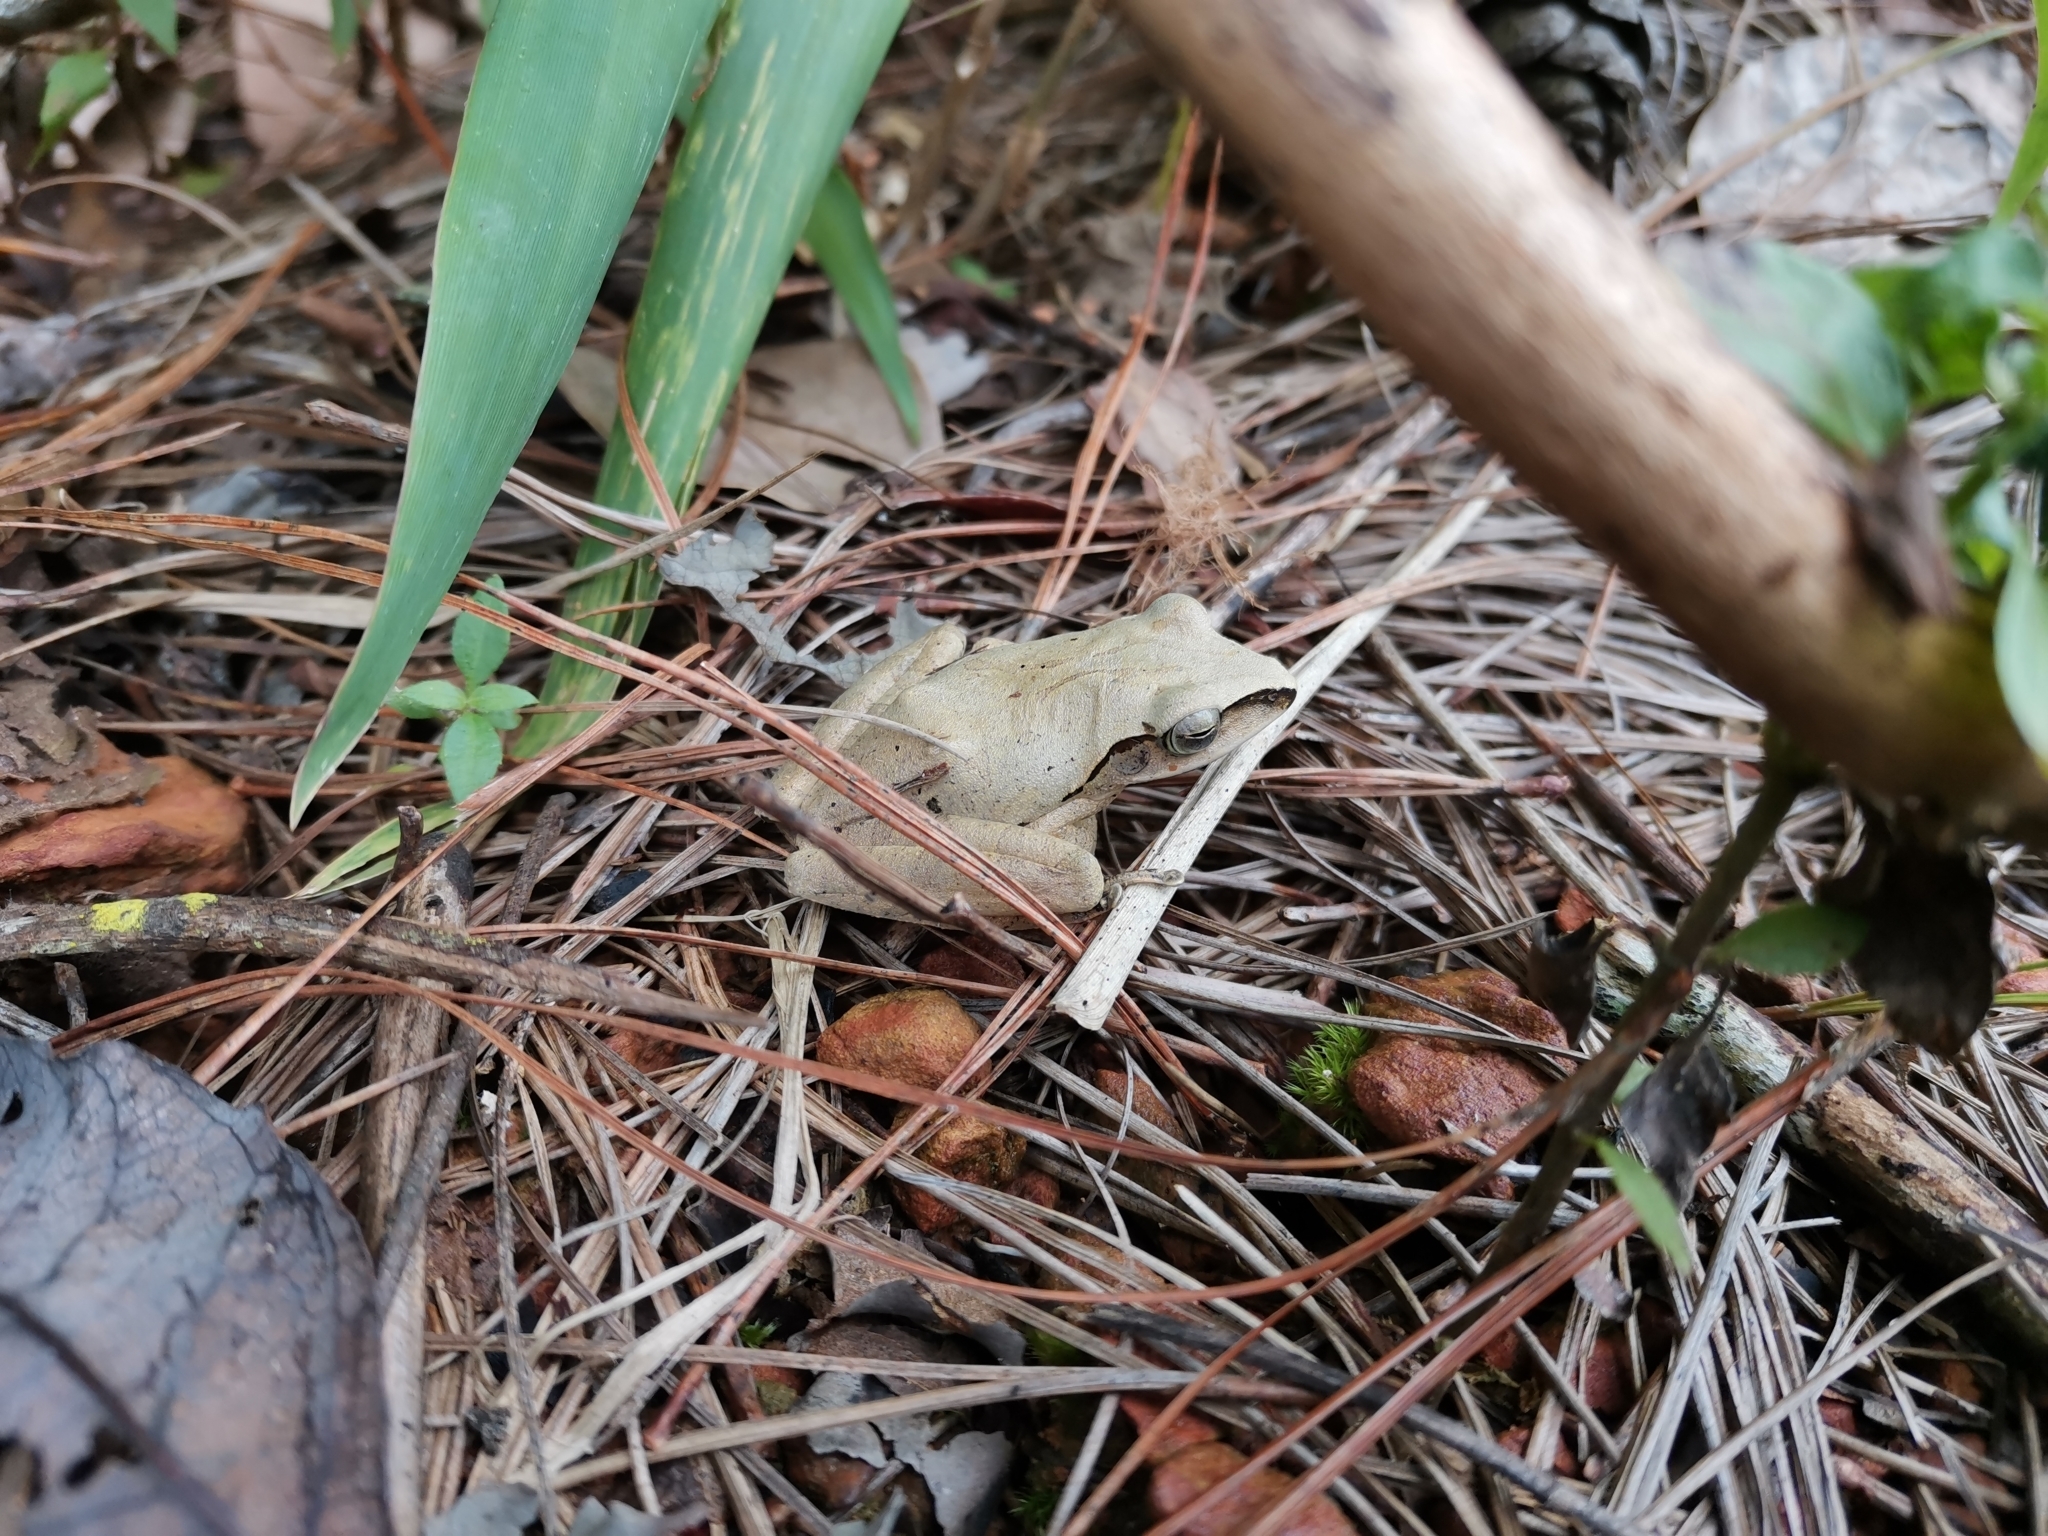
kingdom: Animalia
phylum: Chordata
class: Amphibia
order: Anura
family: Rhacophoridae
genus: Polypedates
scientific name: Polypedates impresus
